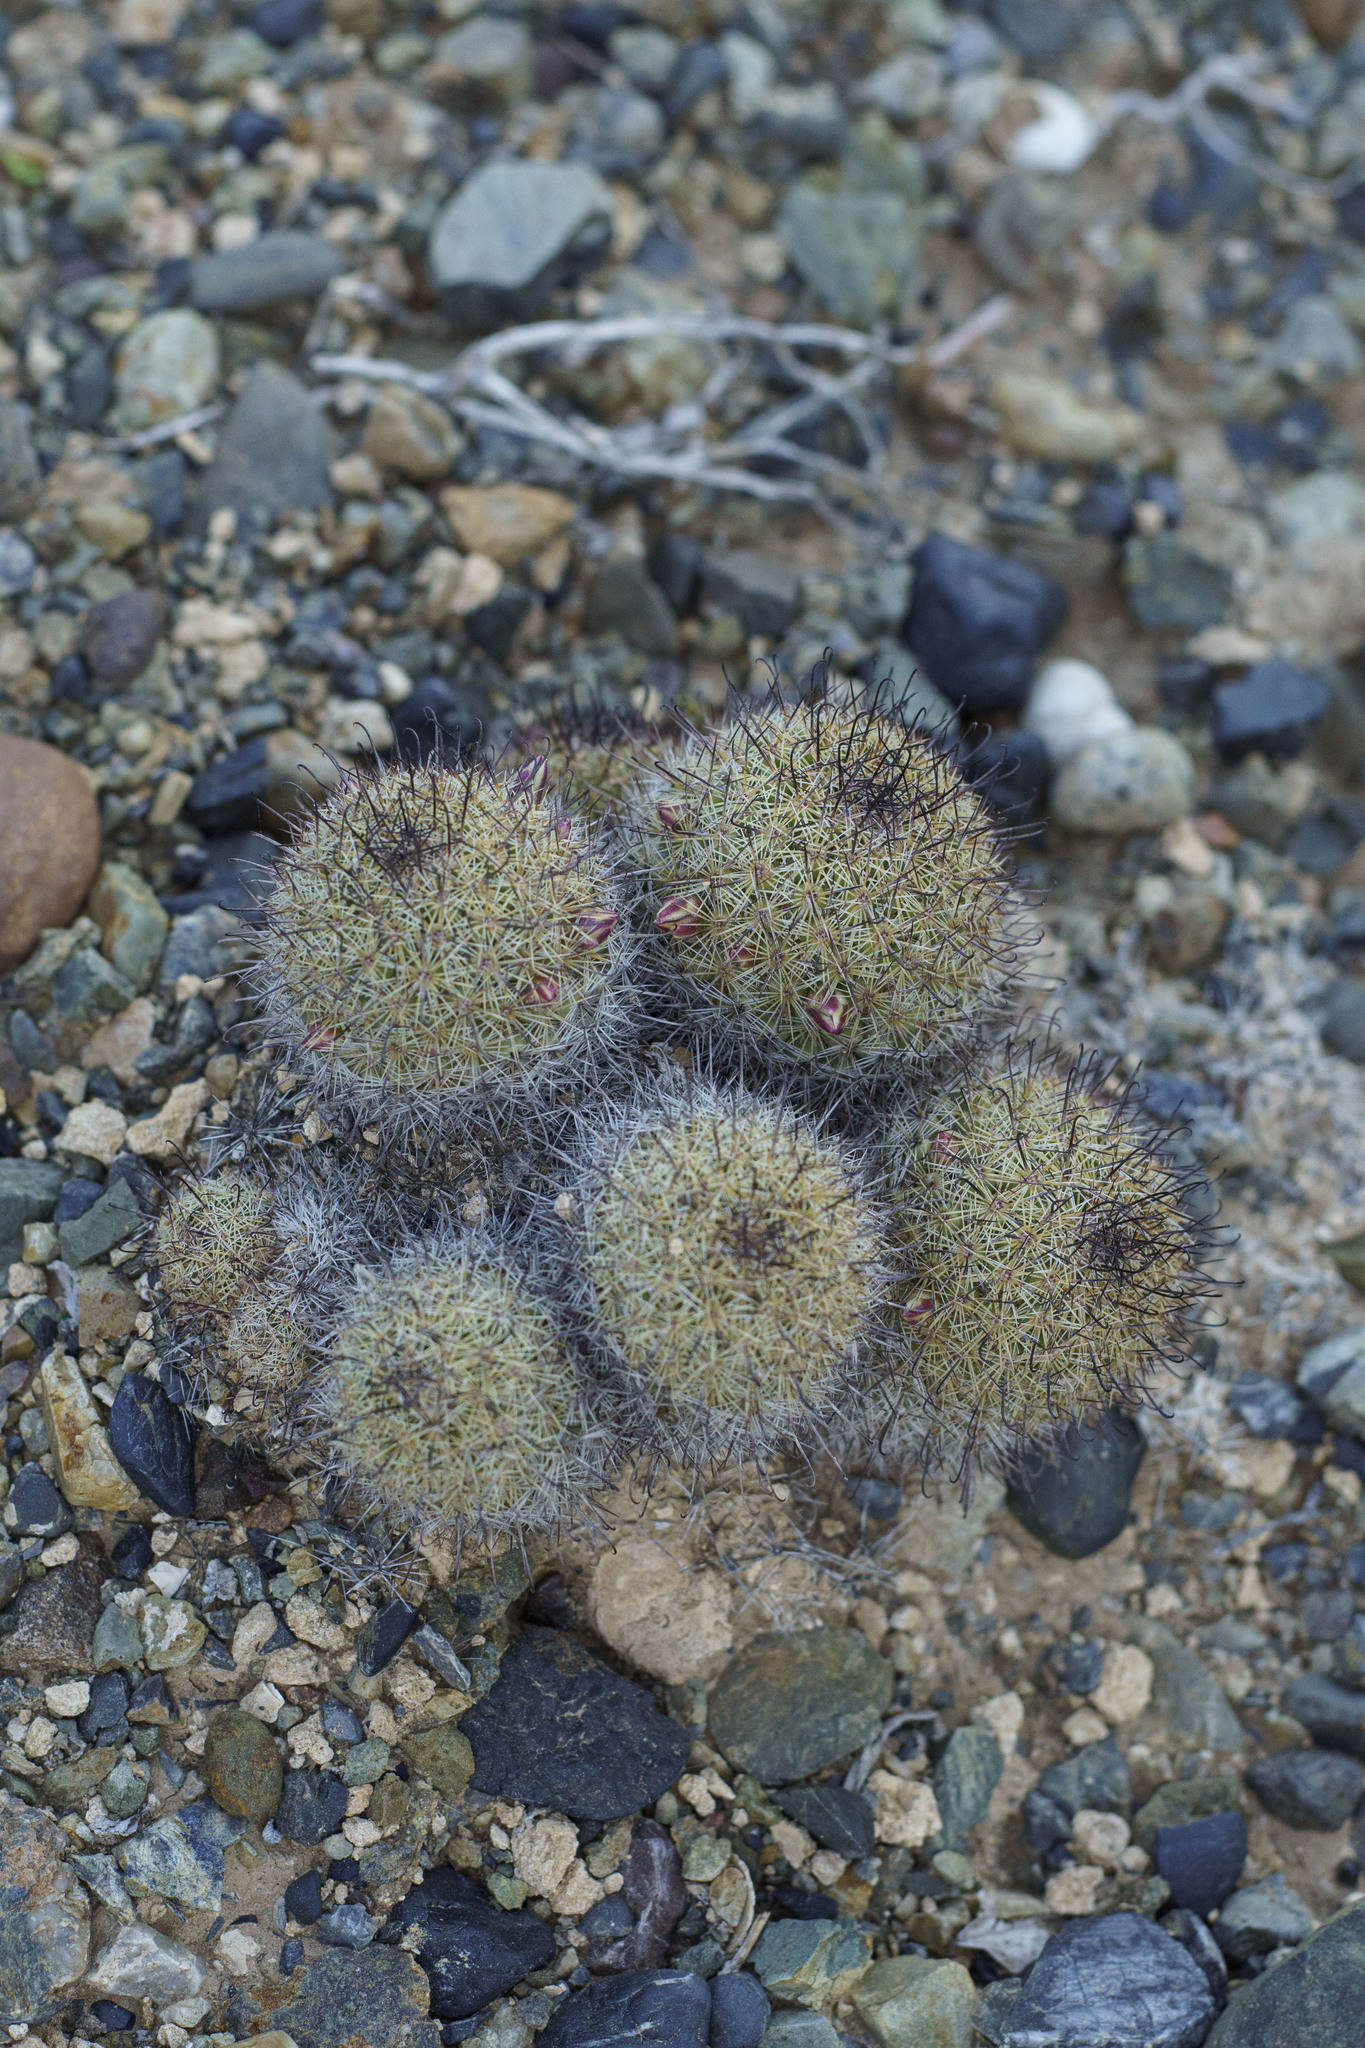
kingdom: Plantae
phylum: Tracheophyta
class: Magnoliopsida
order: Caryophyllales
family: Cactaceae
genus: Cochemiea
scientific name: Cochemiea dioica
